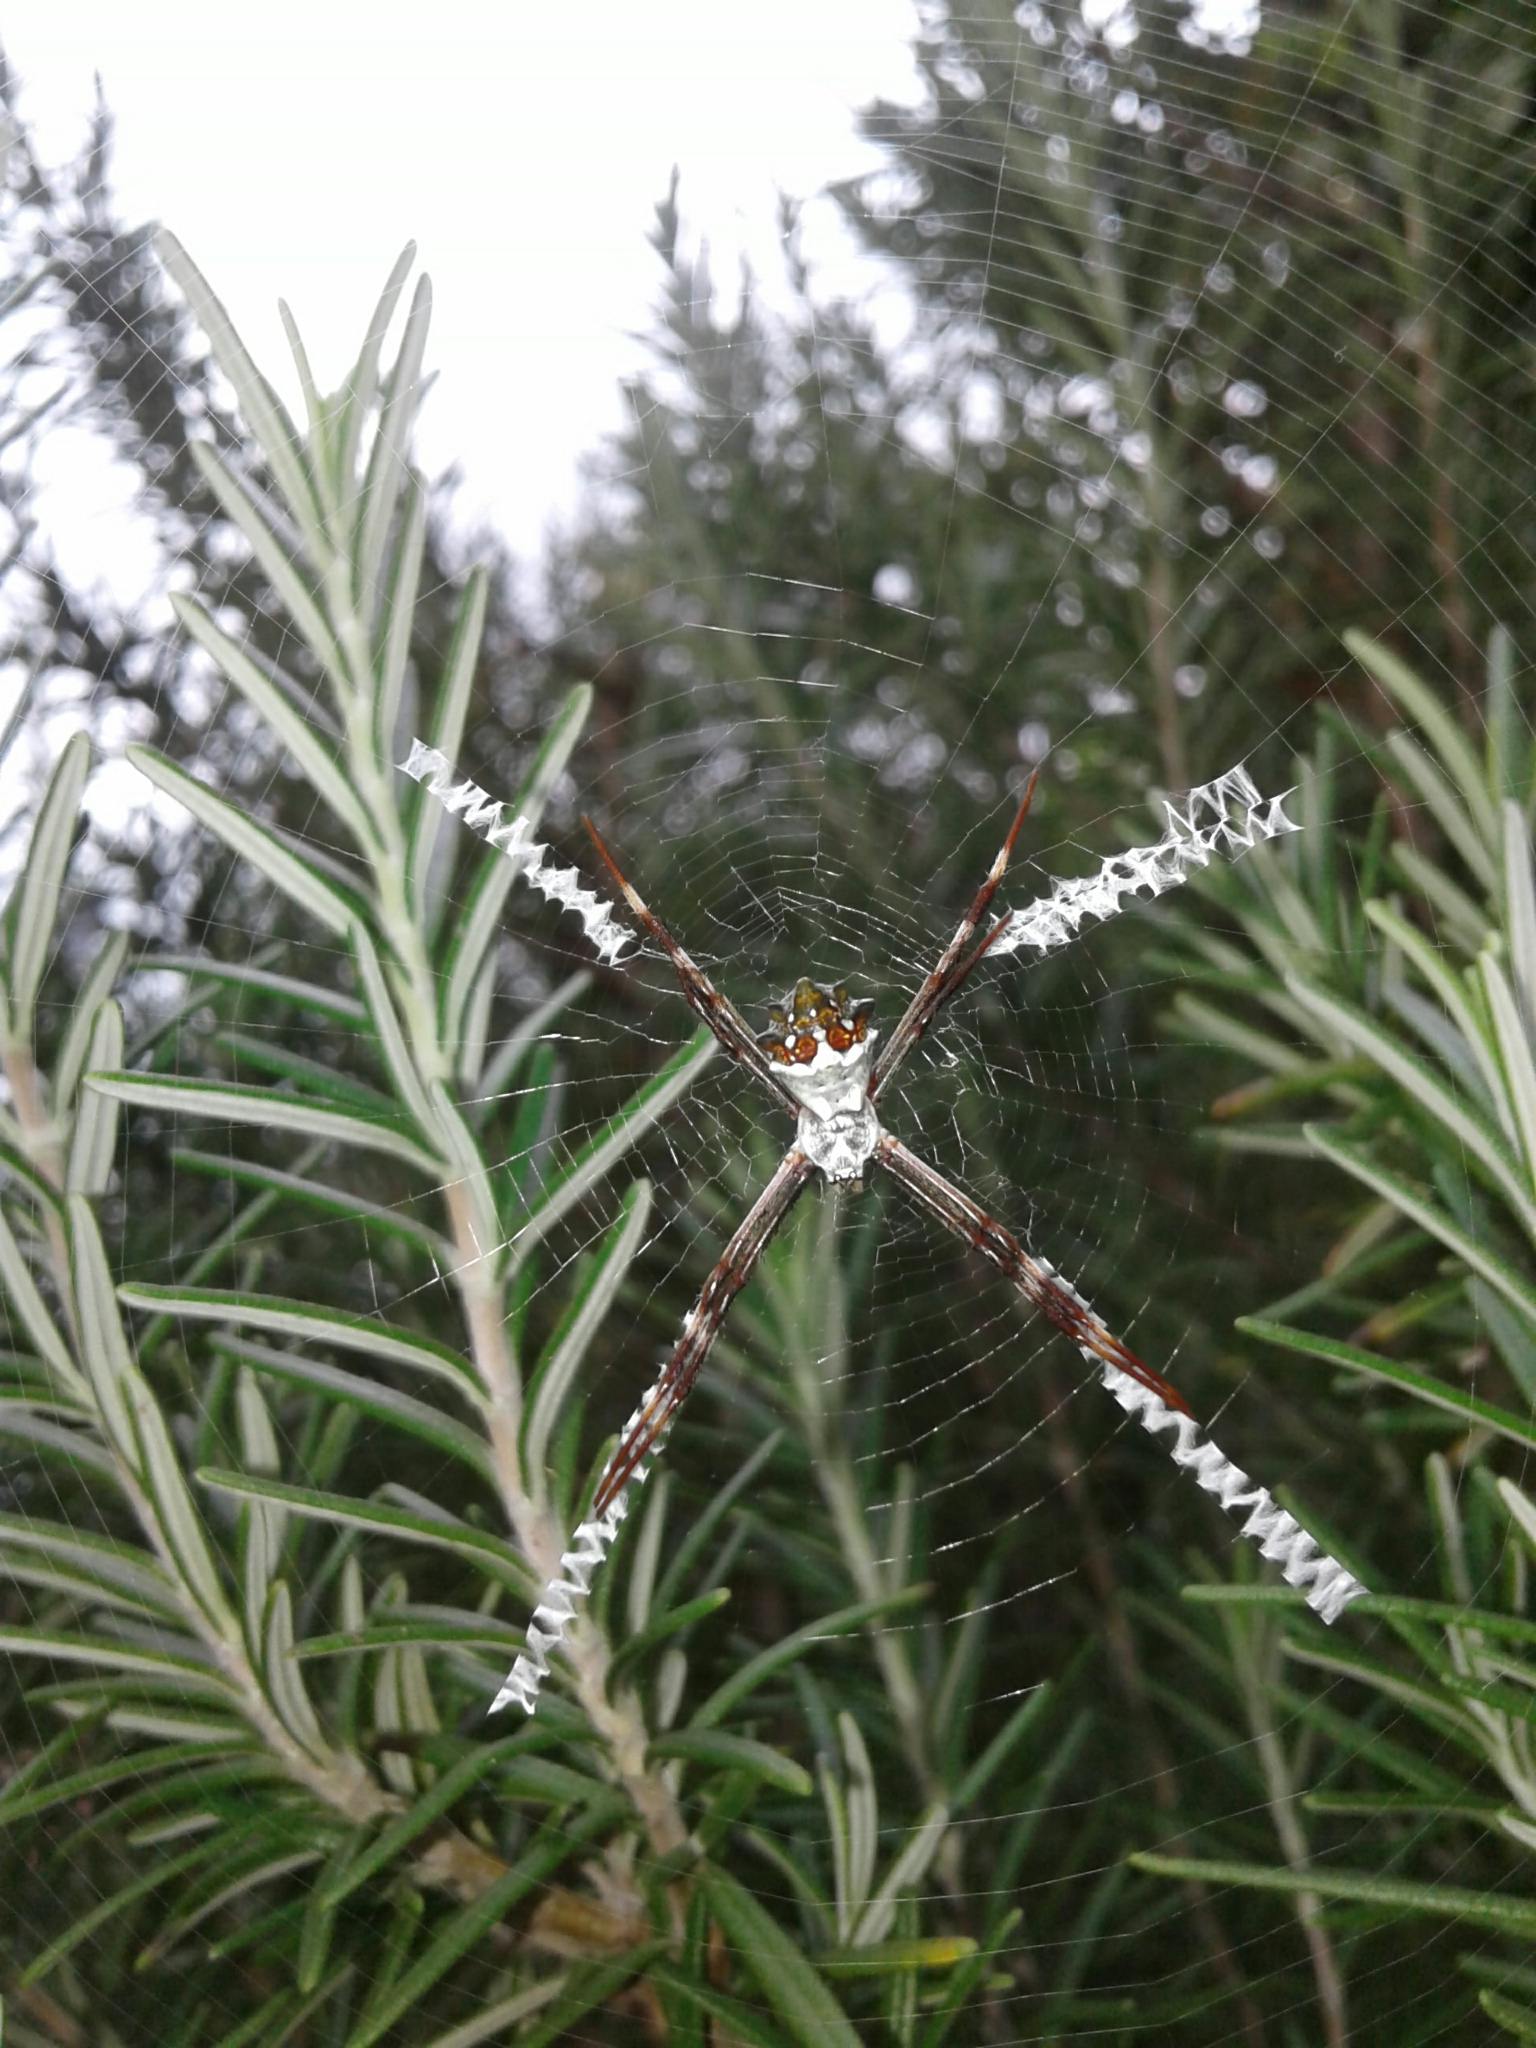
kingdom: Animalia
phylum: Arthropoda
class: Arachnida
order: Araneae
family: Araneidae
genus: Argiope
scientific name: Argiope argentata
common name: Orb weavers
